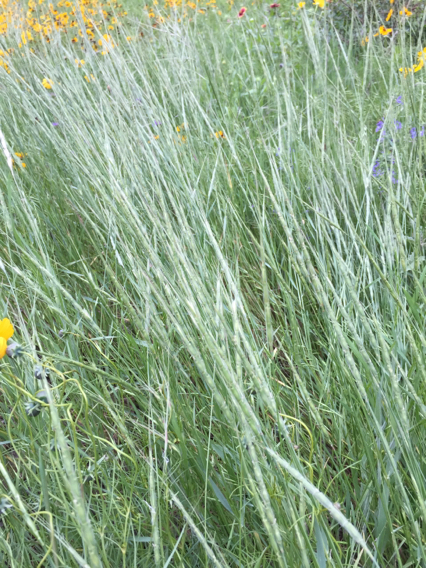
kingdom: Plantae
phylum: Tracheophyta
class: Liliopsida
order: Poales
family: Poaceae
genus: Aegilops
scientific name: Aegilops cylindrica
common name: Jointed goatgrass
